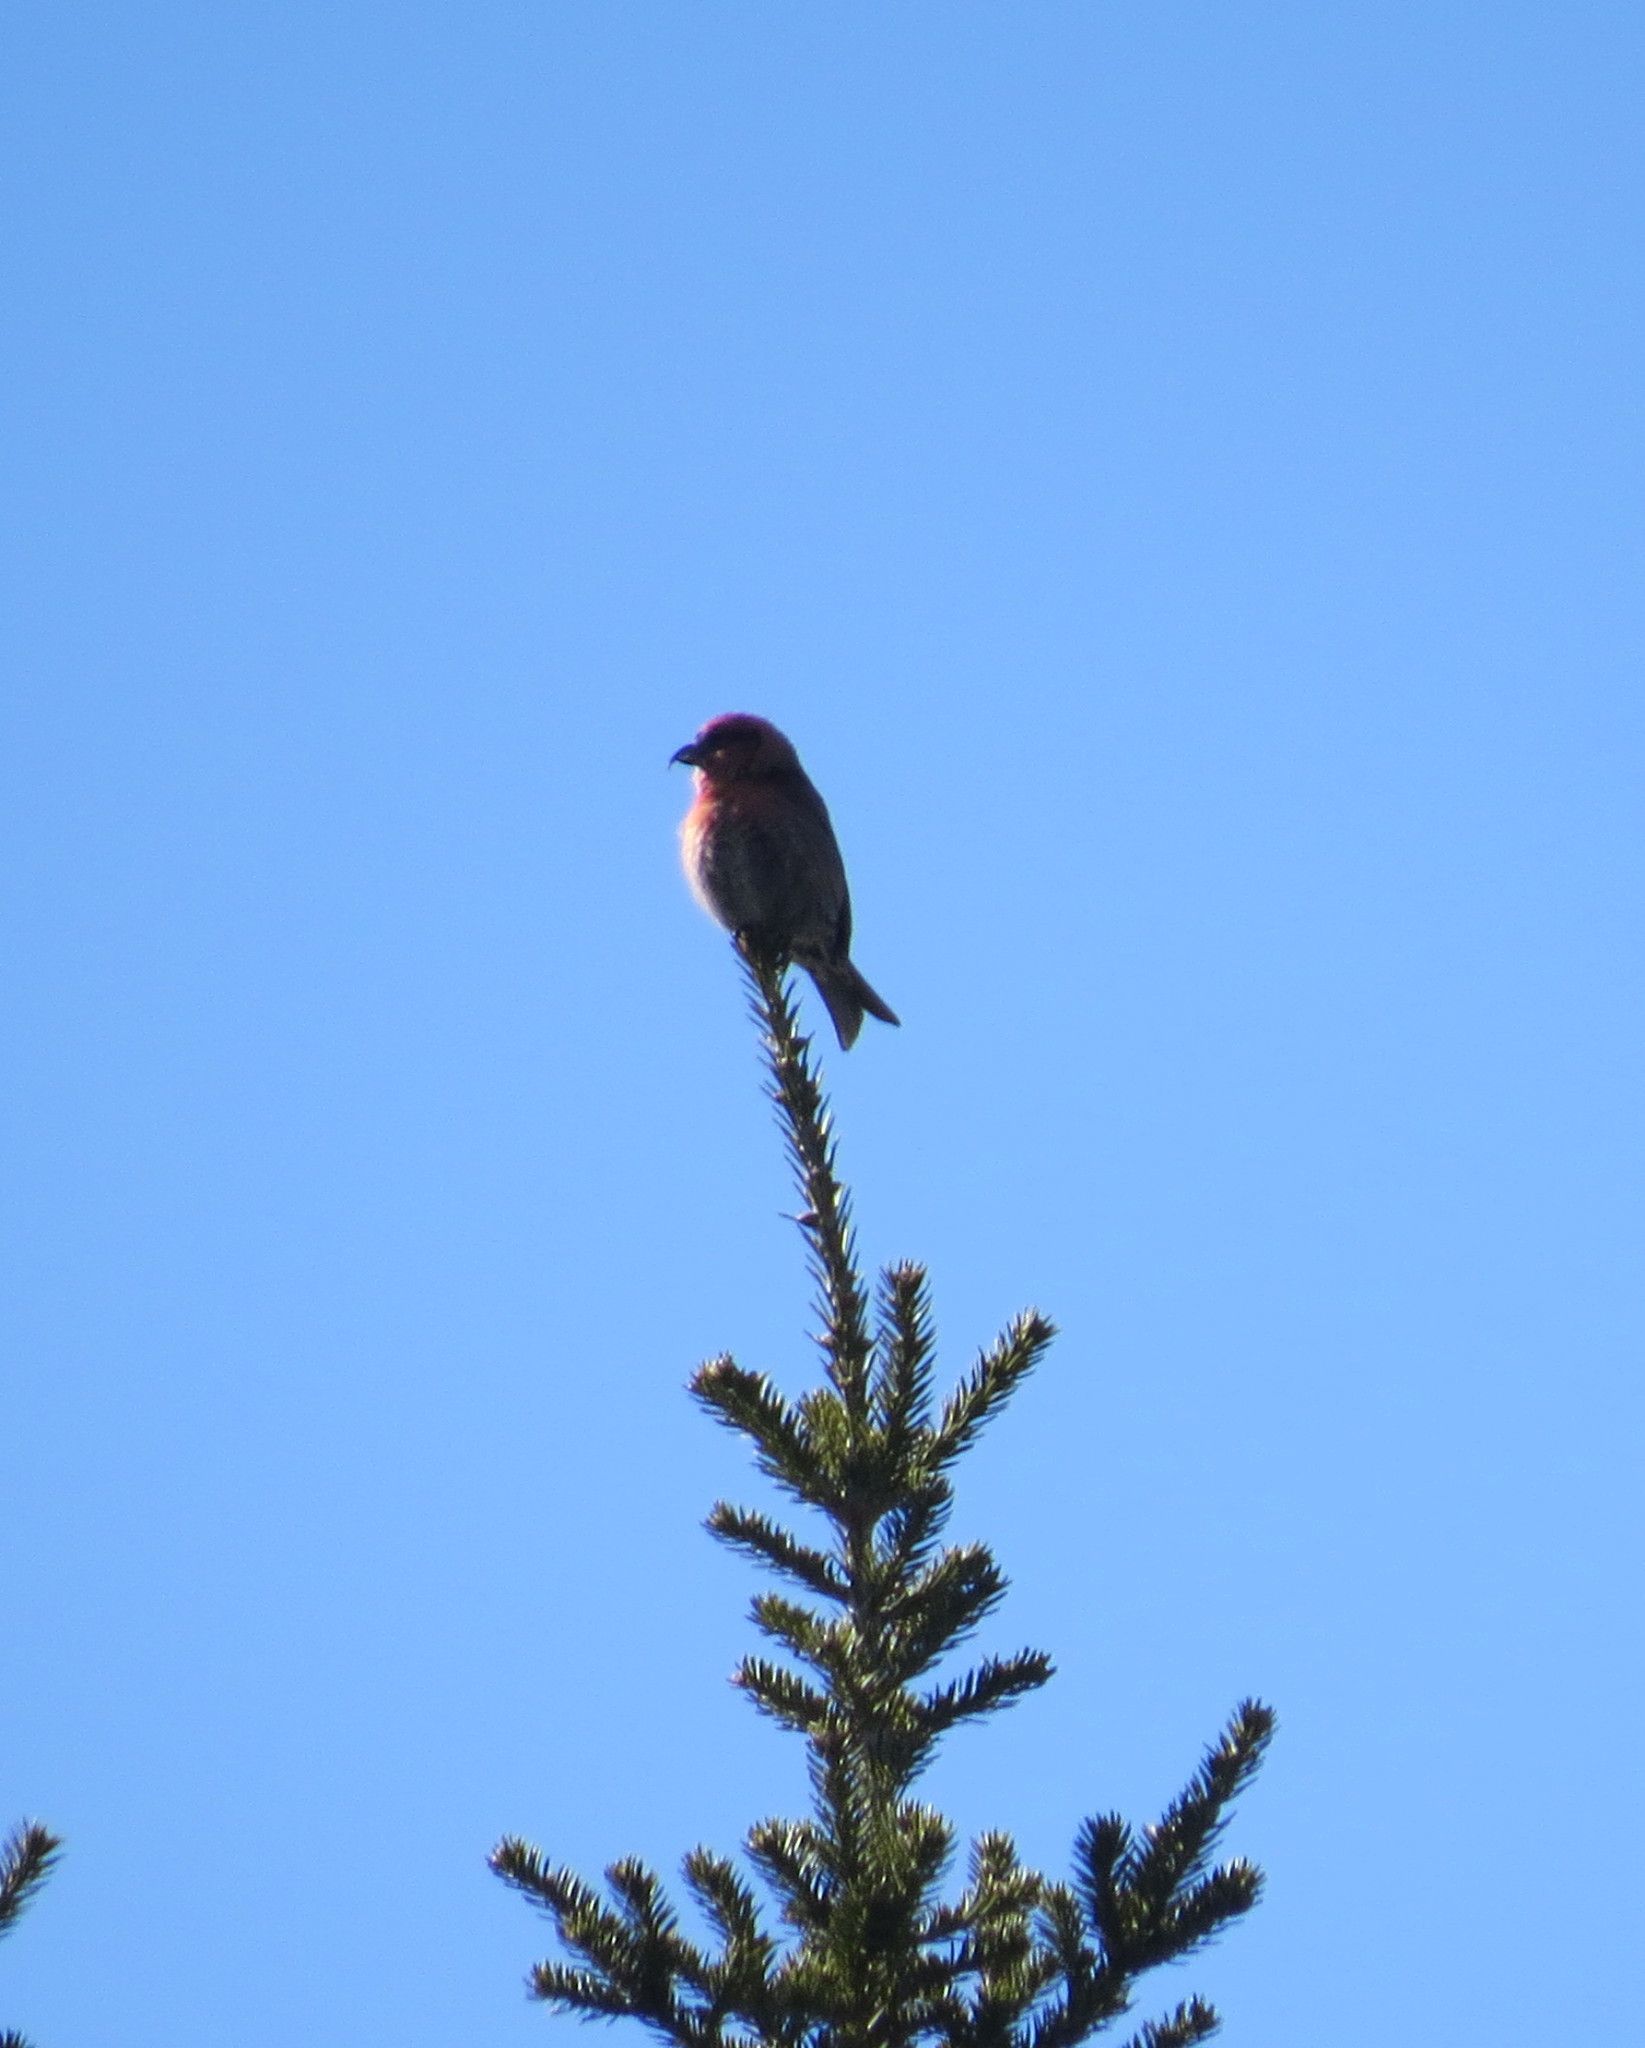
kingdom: Animalia
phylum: Chordata
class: Aves
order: Passeriformes
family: Fringillidae
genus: Loxia
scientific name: Loxia leucoptera
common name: Two-barred crossbill
